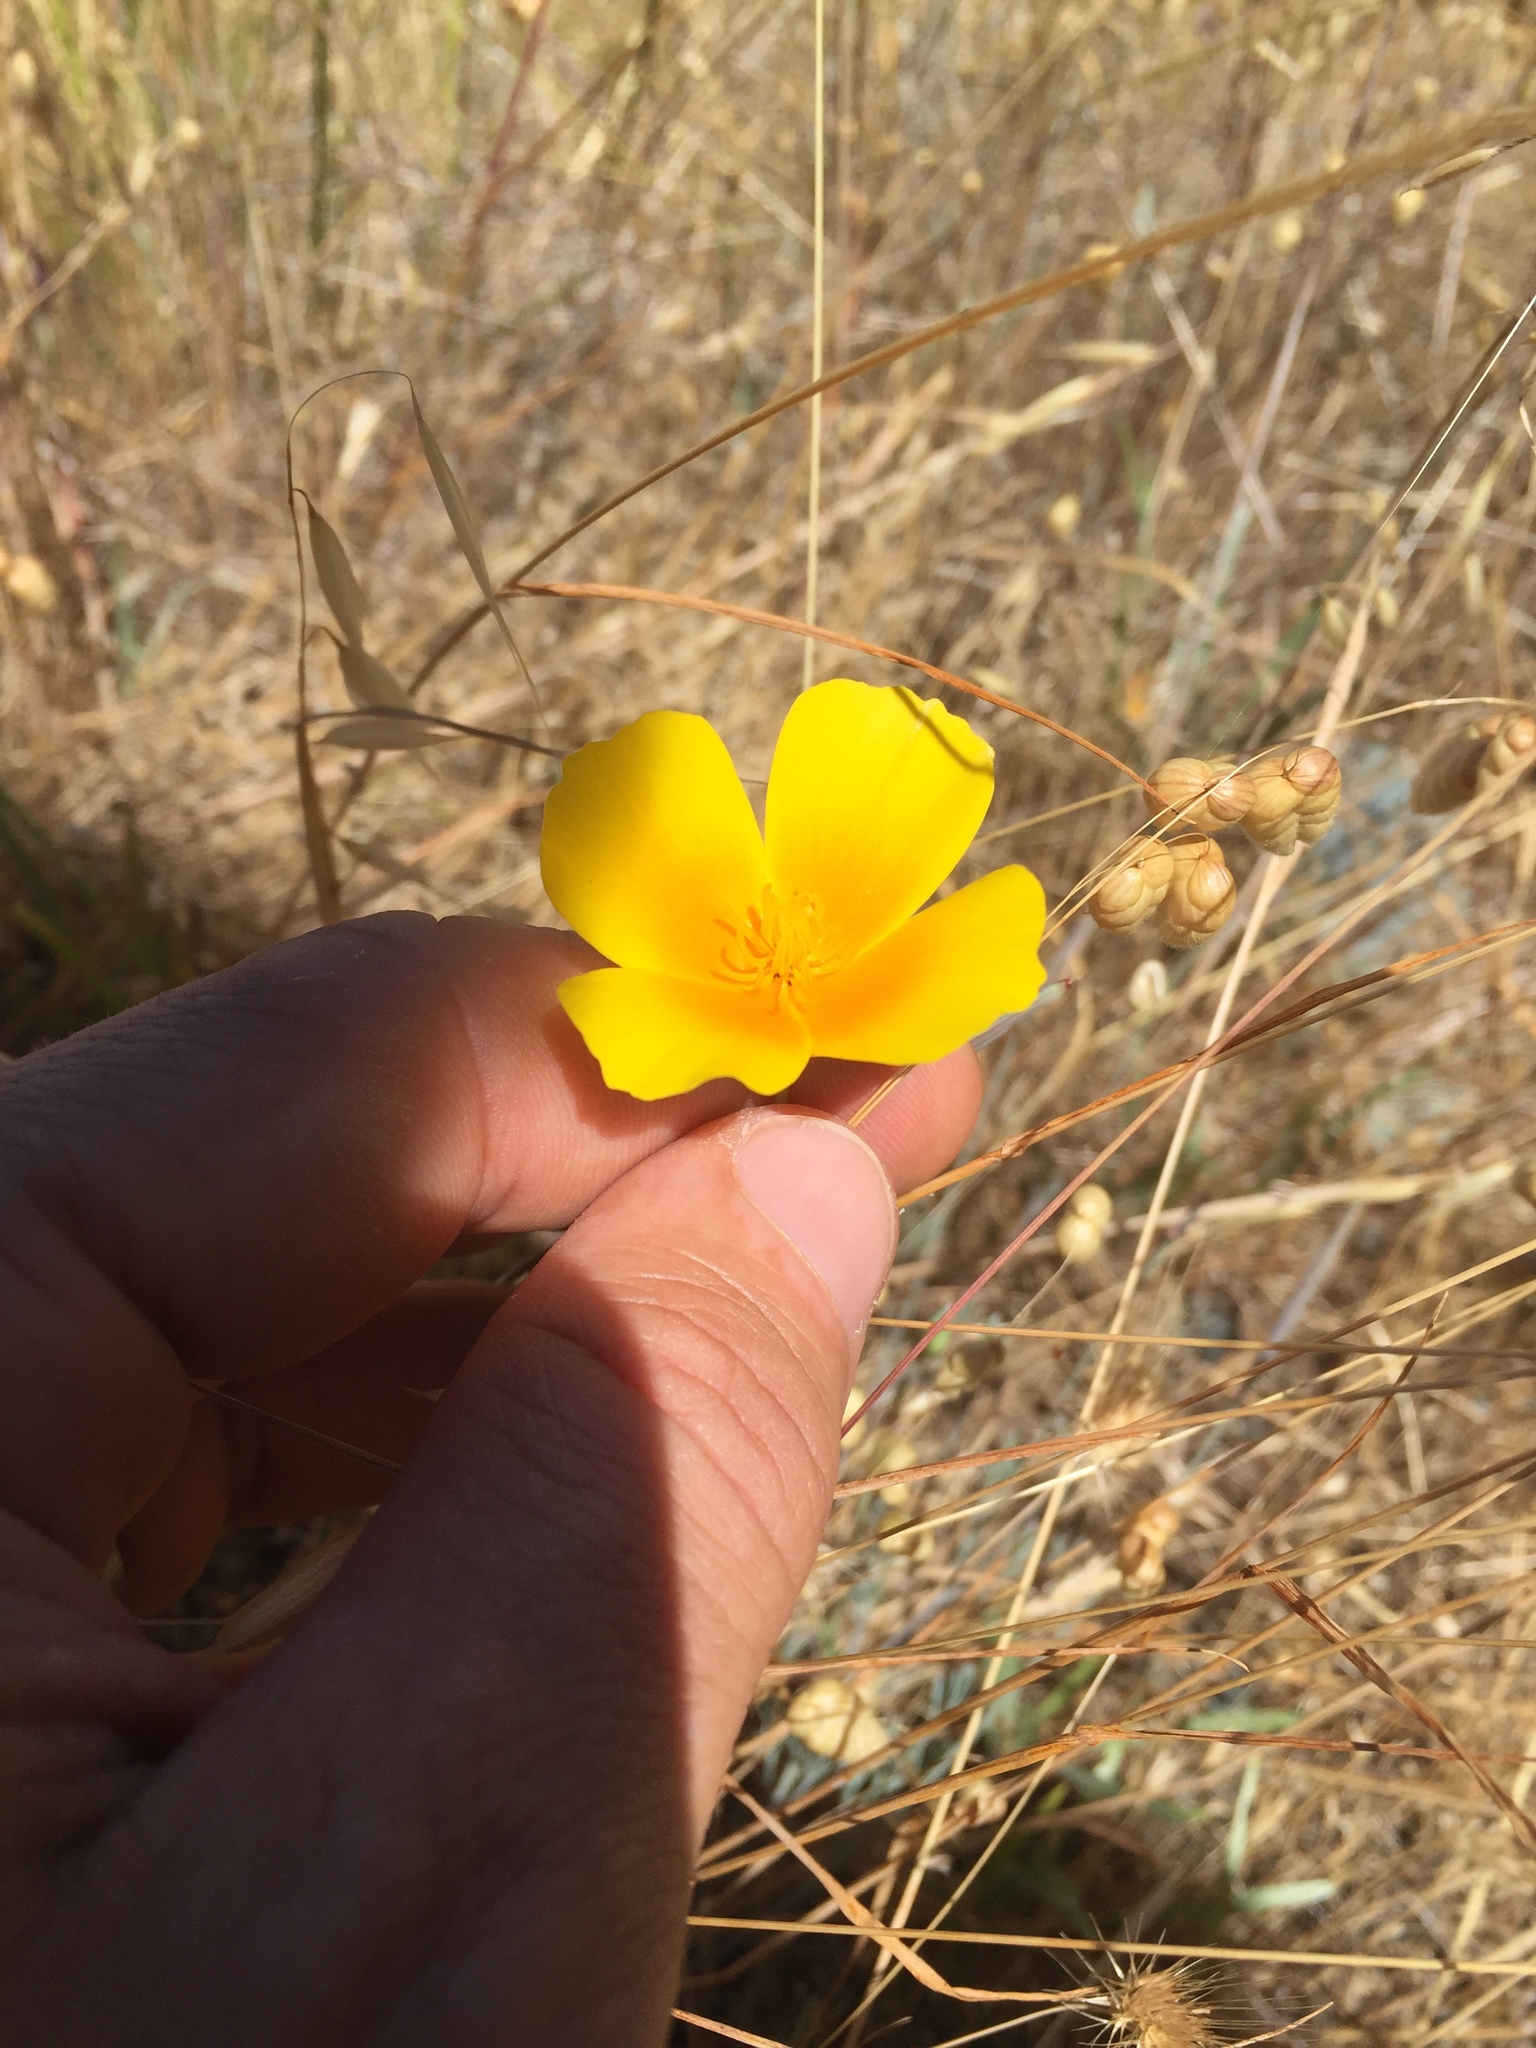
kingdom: Plantae
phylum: Tracheophyta
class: Magnoliopsida
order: Ranunculales
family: Papaveraceae
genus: Eschscholzia
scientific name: Eschscholzia californica
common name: California poppy
